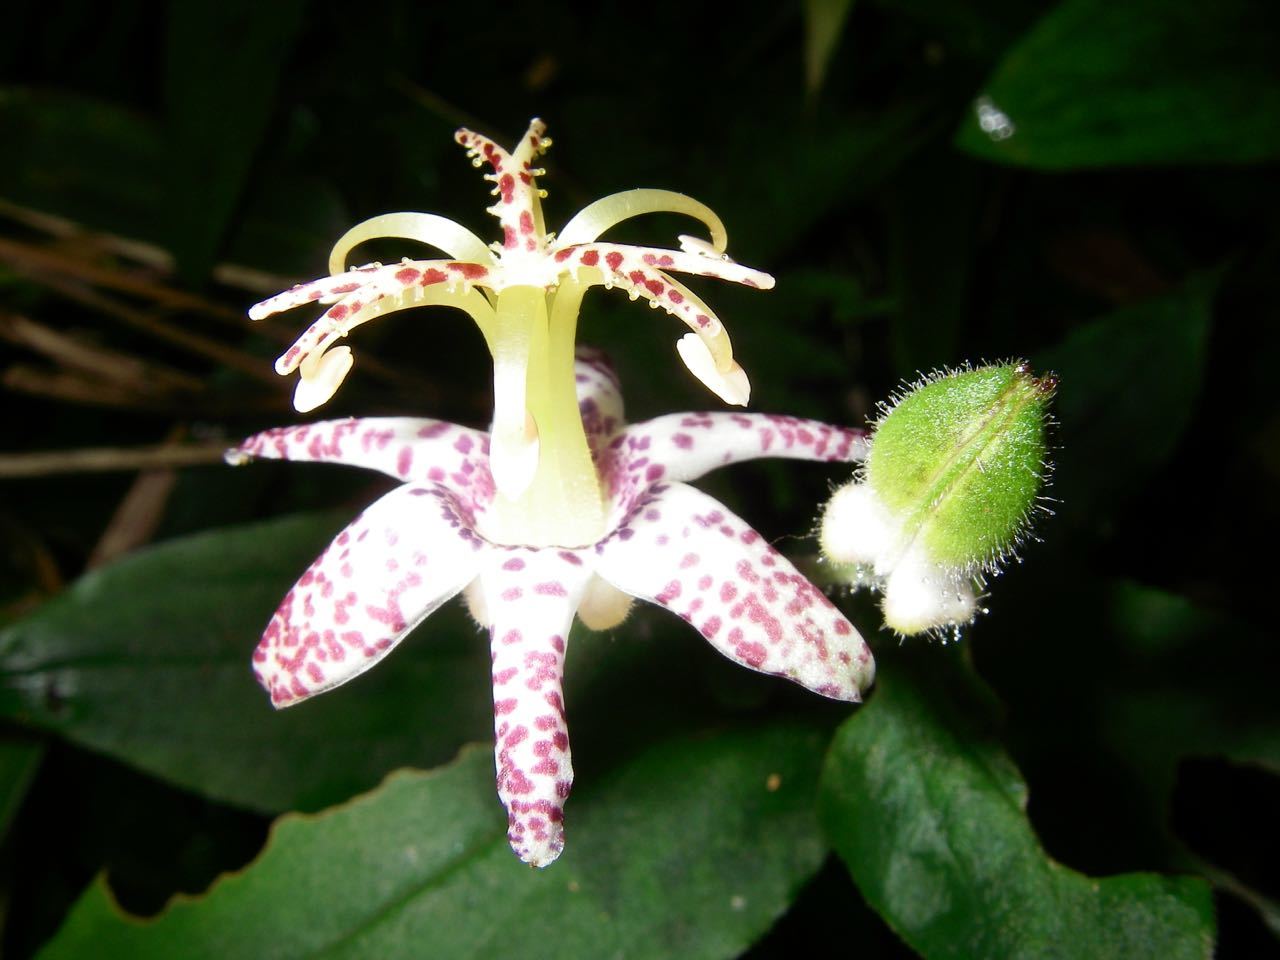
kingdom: Plantae
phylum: Tracheophyta
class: Liliopsida
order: Liliales
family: Liliaceae
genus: Tricyrtis
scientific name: Tricyrtis affinis
